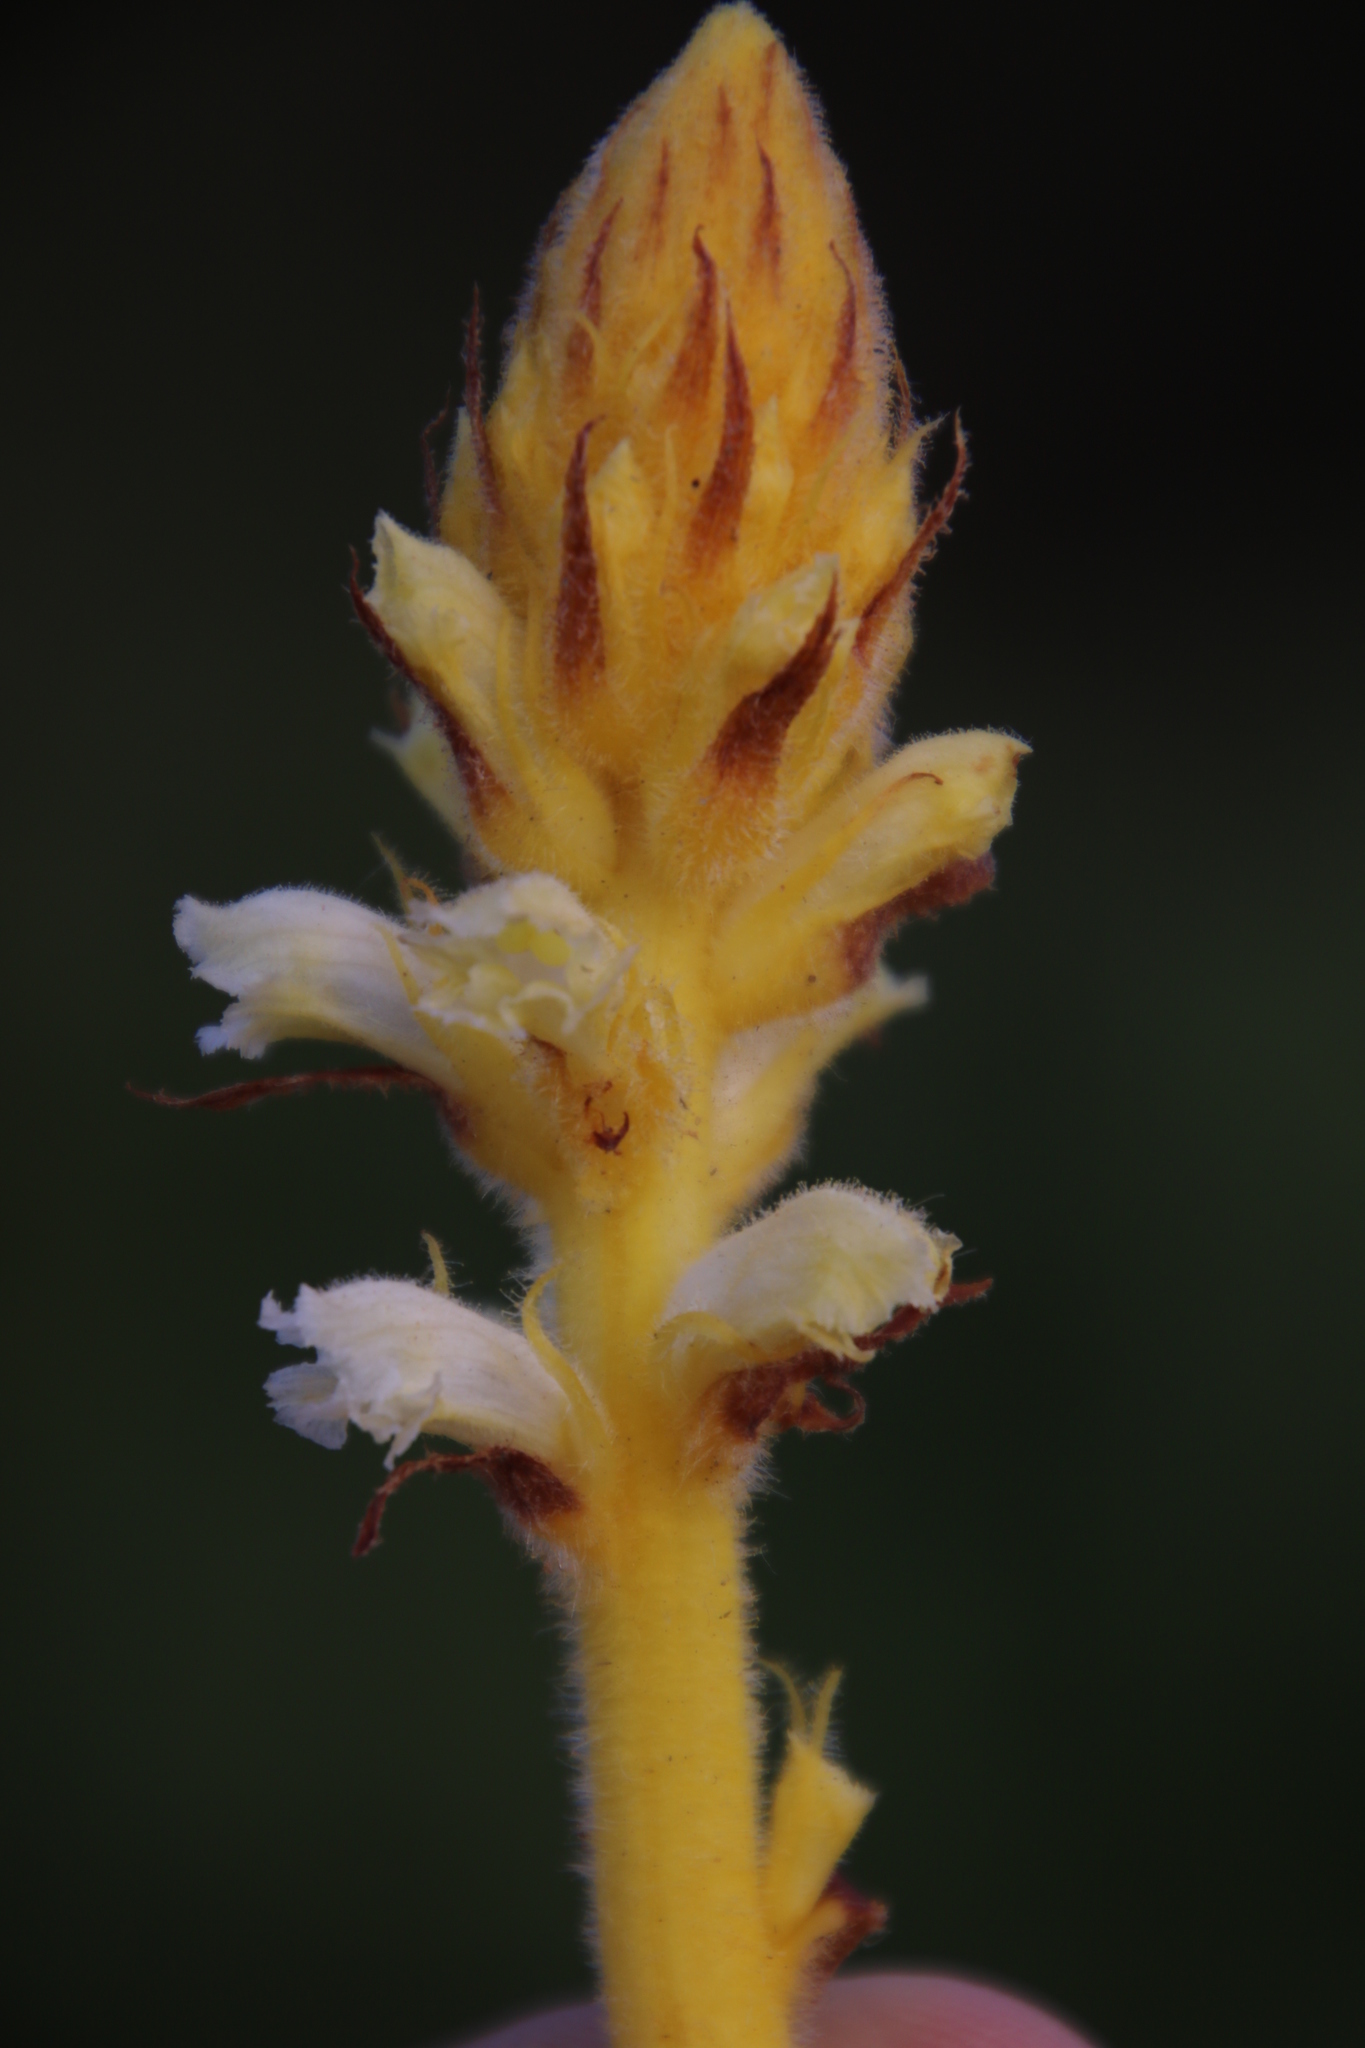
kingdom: Plantae
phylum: Tracheophyta
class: Magnoliopsida
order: Lamiales
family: Orobanchaceae
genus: Orobanche
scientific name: Orobanche minor
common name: Common broomrape
